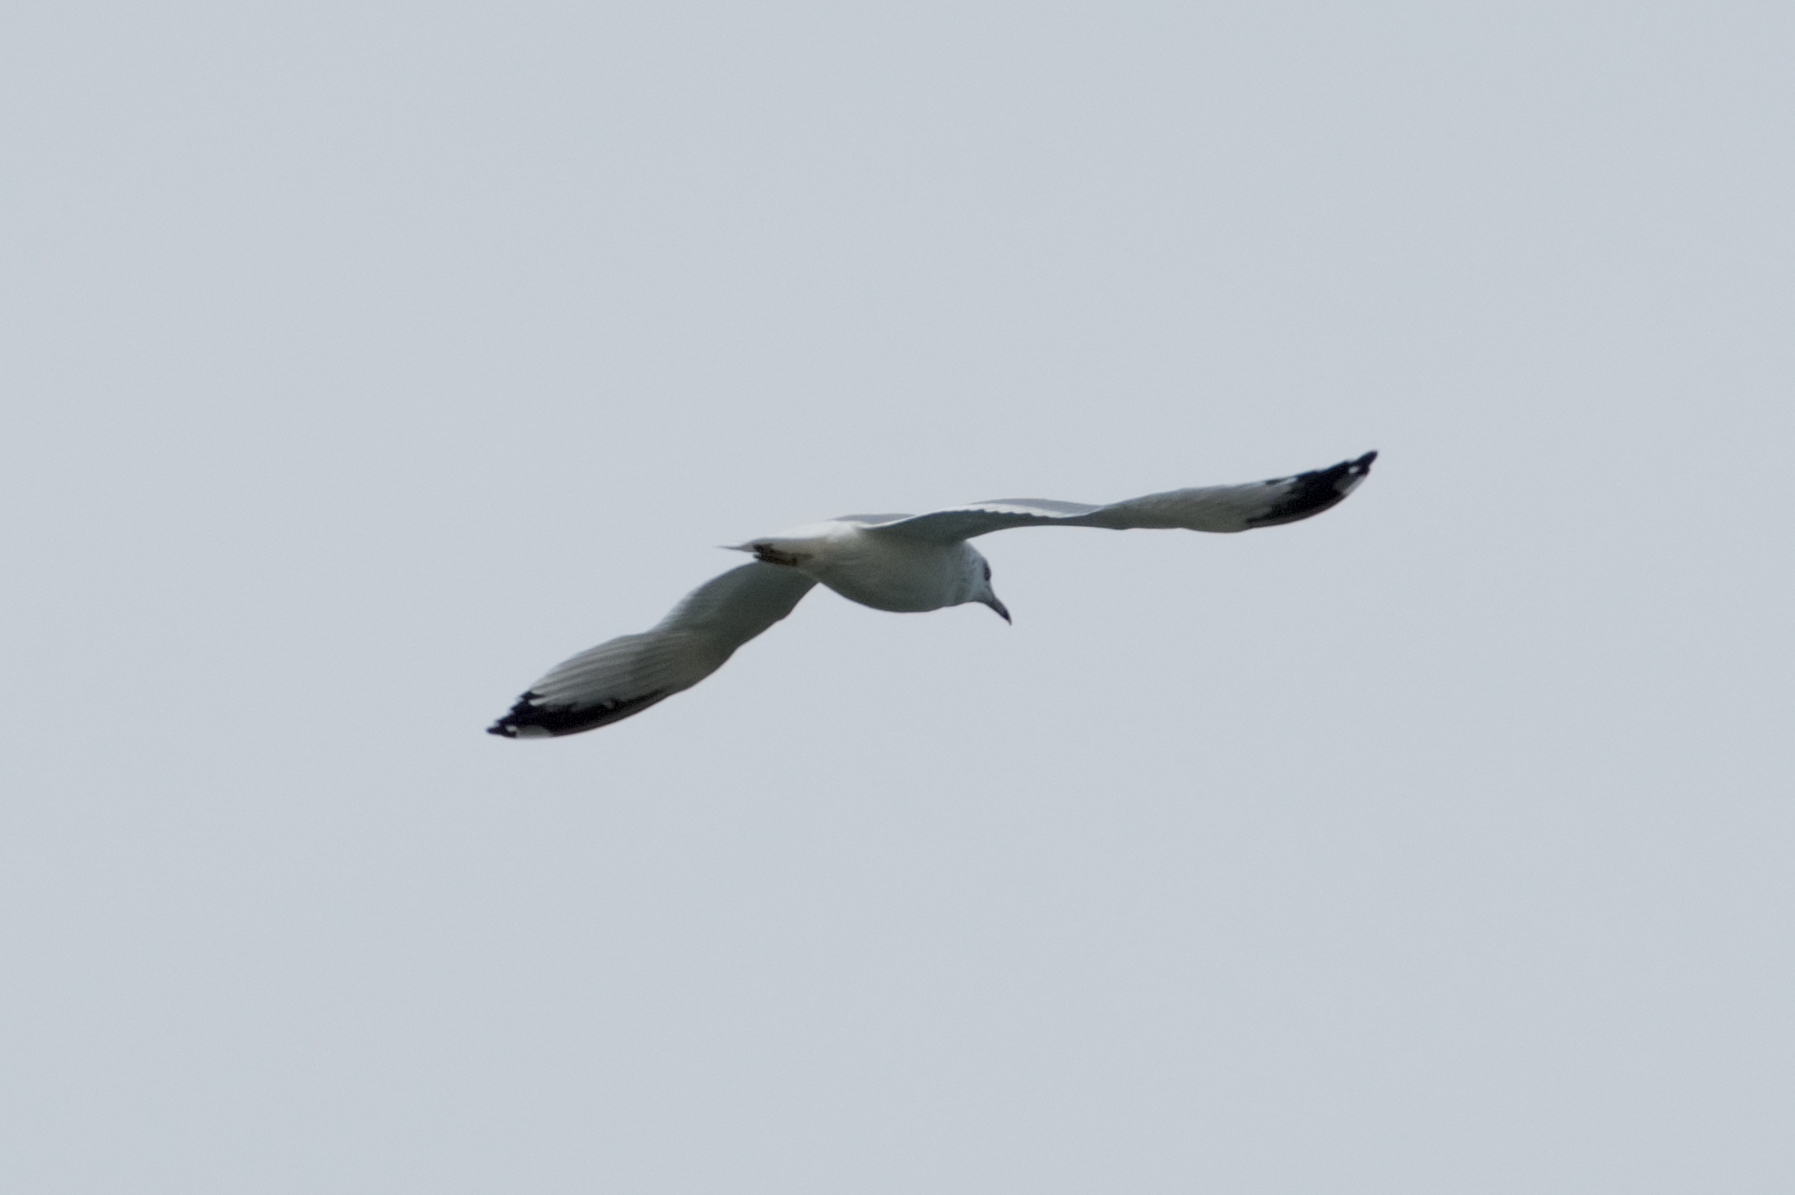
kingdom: Animalia
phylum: Chordata
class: Aves
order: Charadriiformes
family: Laridae
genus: Larus
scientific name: Larus delawarensis
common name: Ring-billed gull
